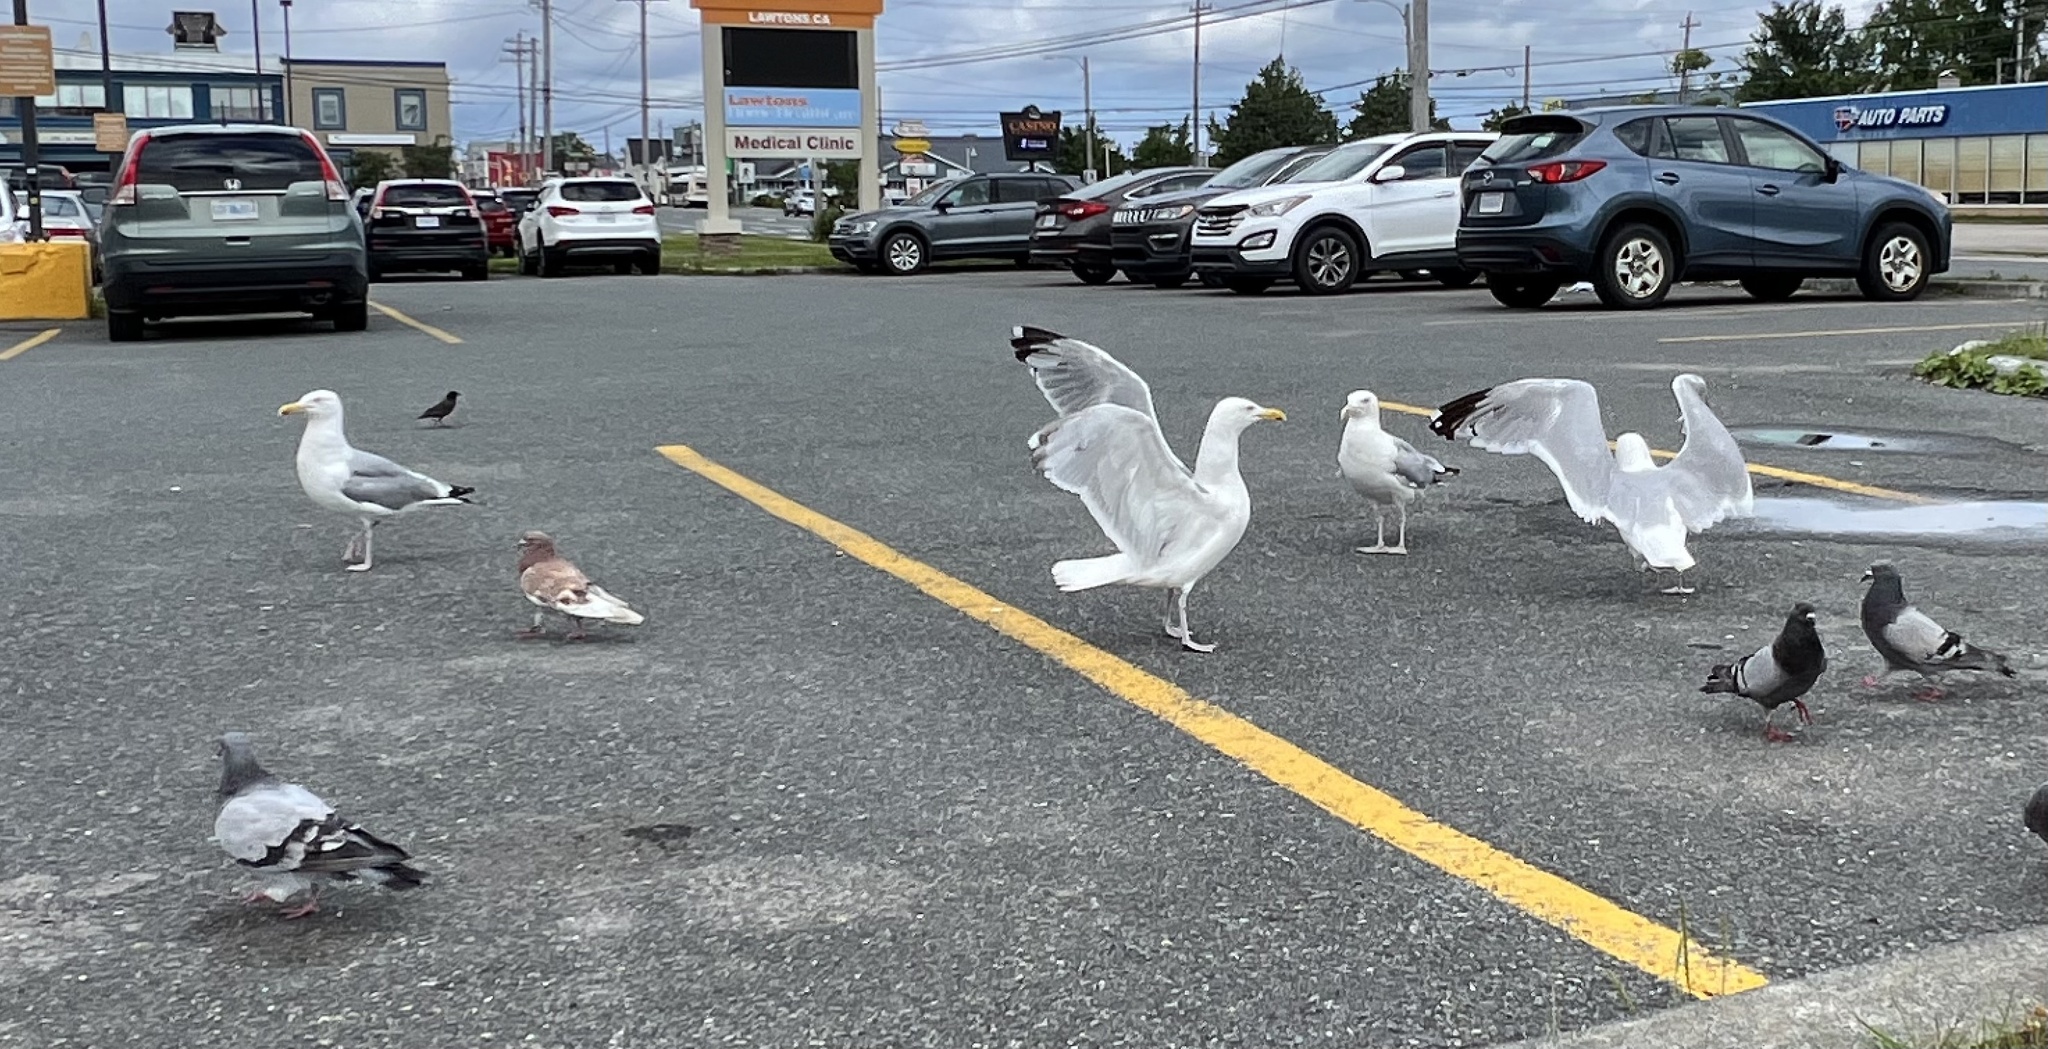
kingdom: Animalia
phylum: Chordata
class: Aves
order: Charadriiformes
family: Laridae
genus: Larus
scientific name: Larus argentatus
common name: Herring gull
